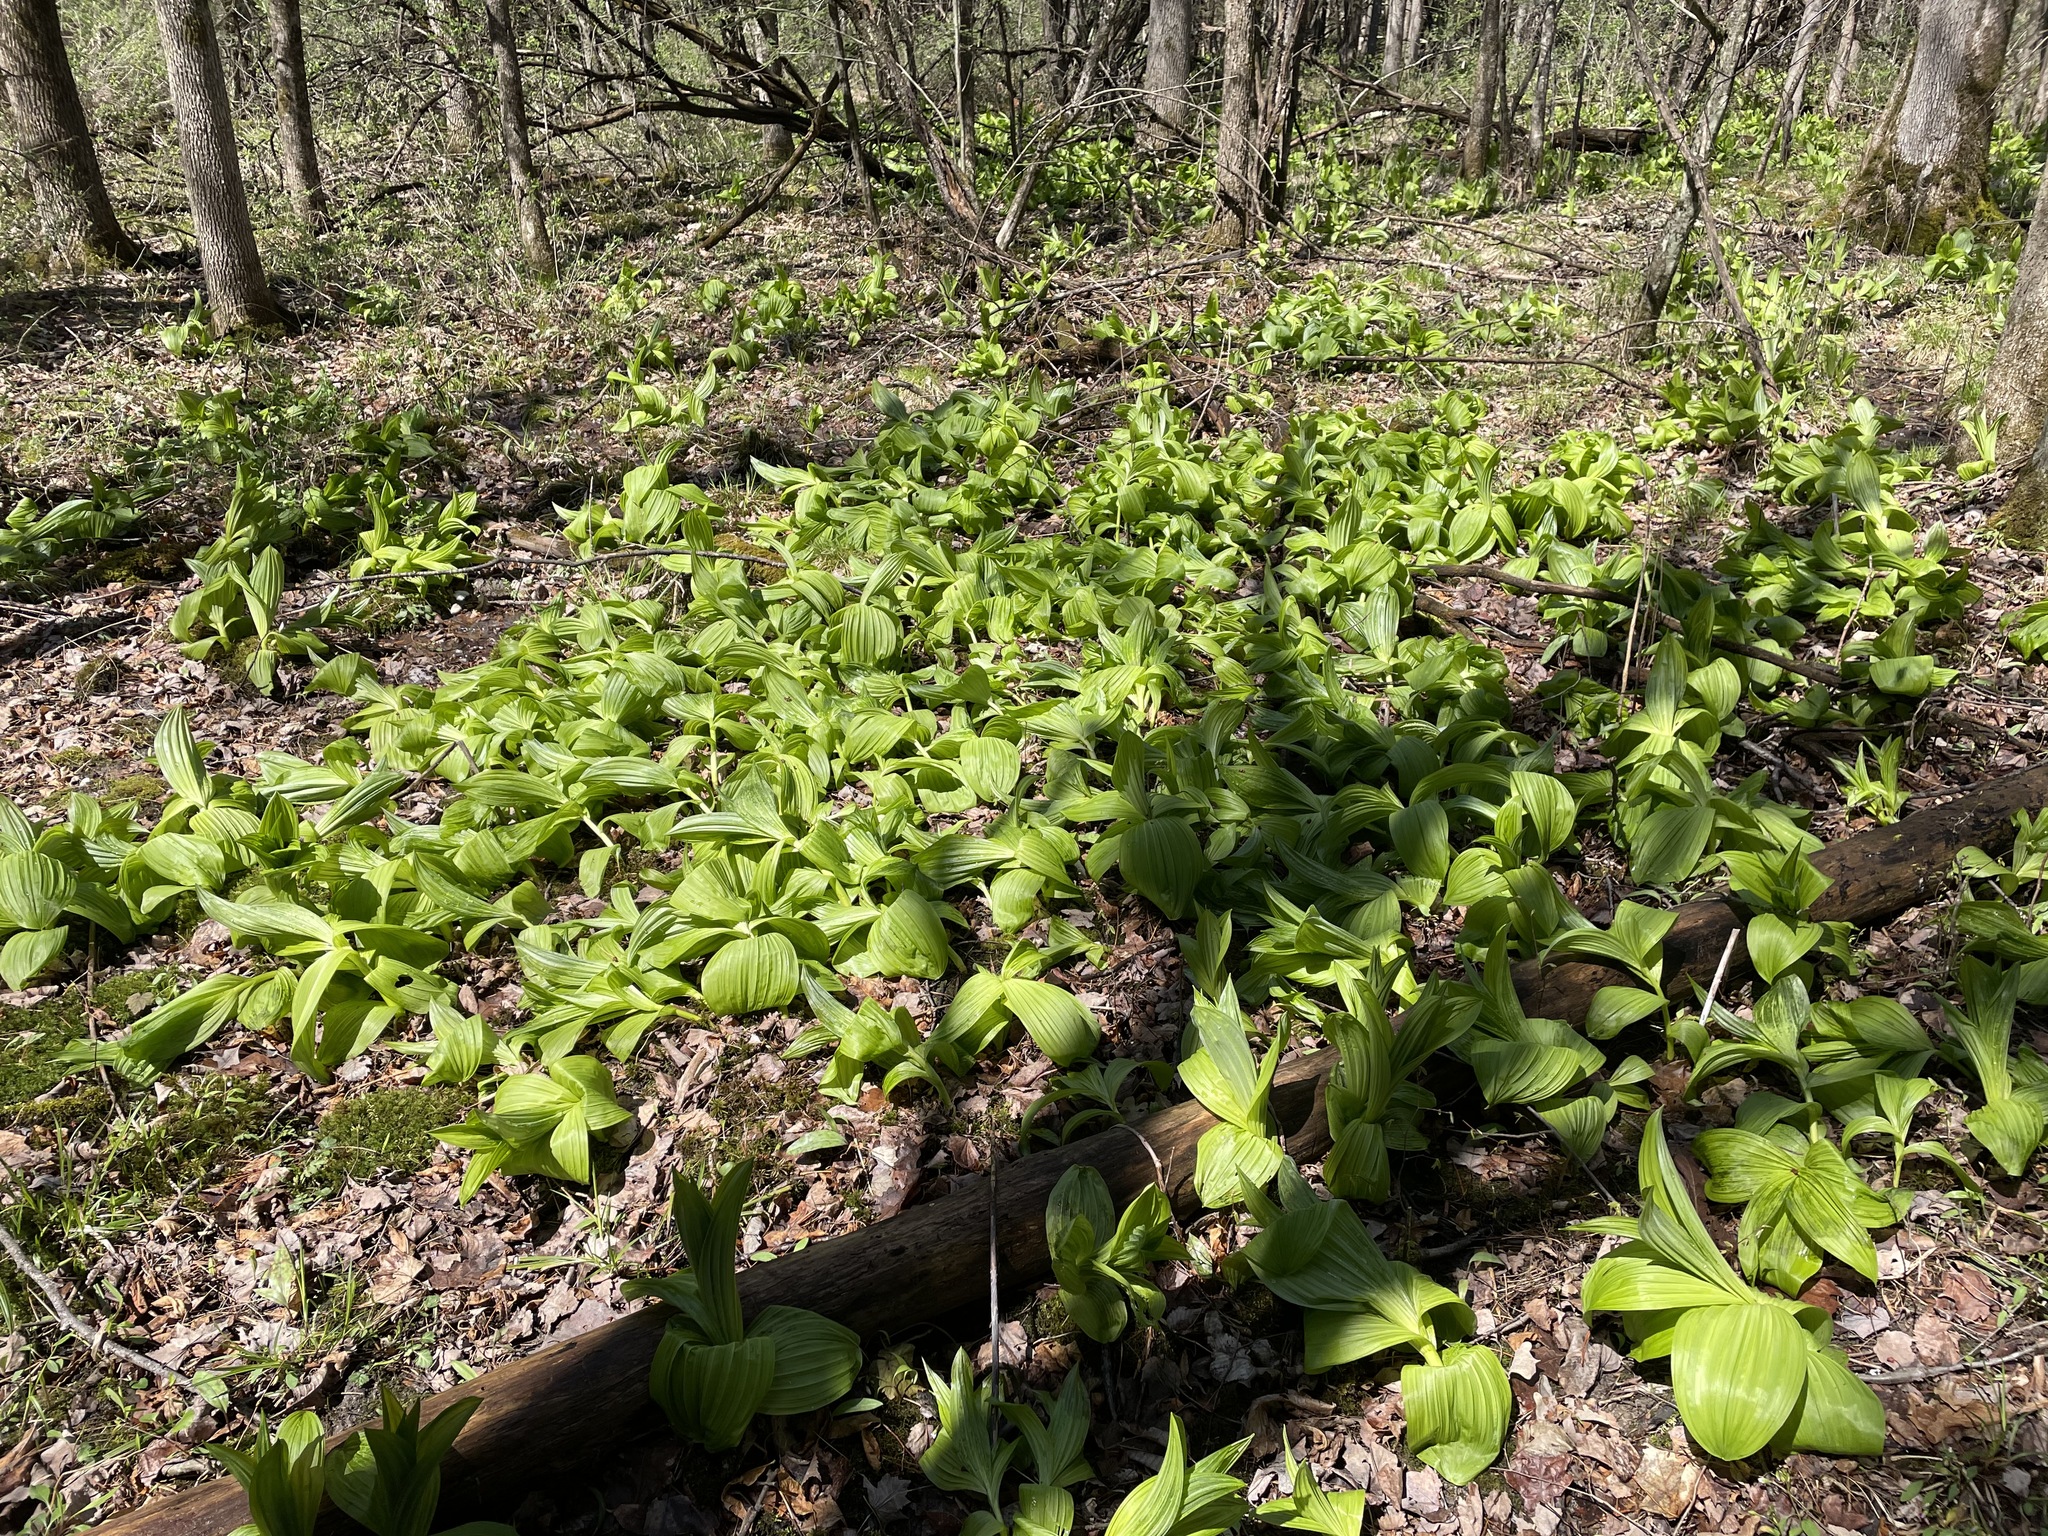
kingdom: Plantae
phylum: Tracheophyta
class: Liliopsida
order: Liliales
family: Melanthiaceae
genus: Veratrum
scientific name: Veratrum viride
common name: American false hellebore
